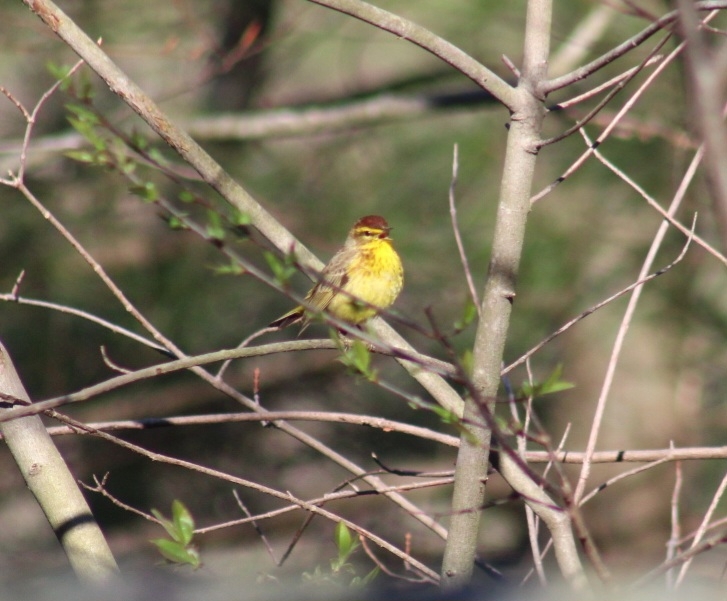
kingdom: Animalia
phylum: Chordata
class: Aves
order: Passeriformes
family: Parulidae
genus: Setophaga
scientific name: Setophaga palmarum
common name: Palm warbler
